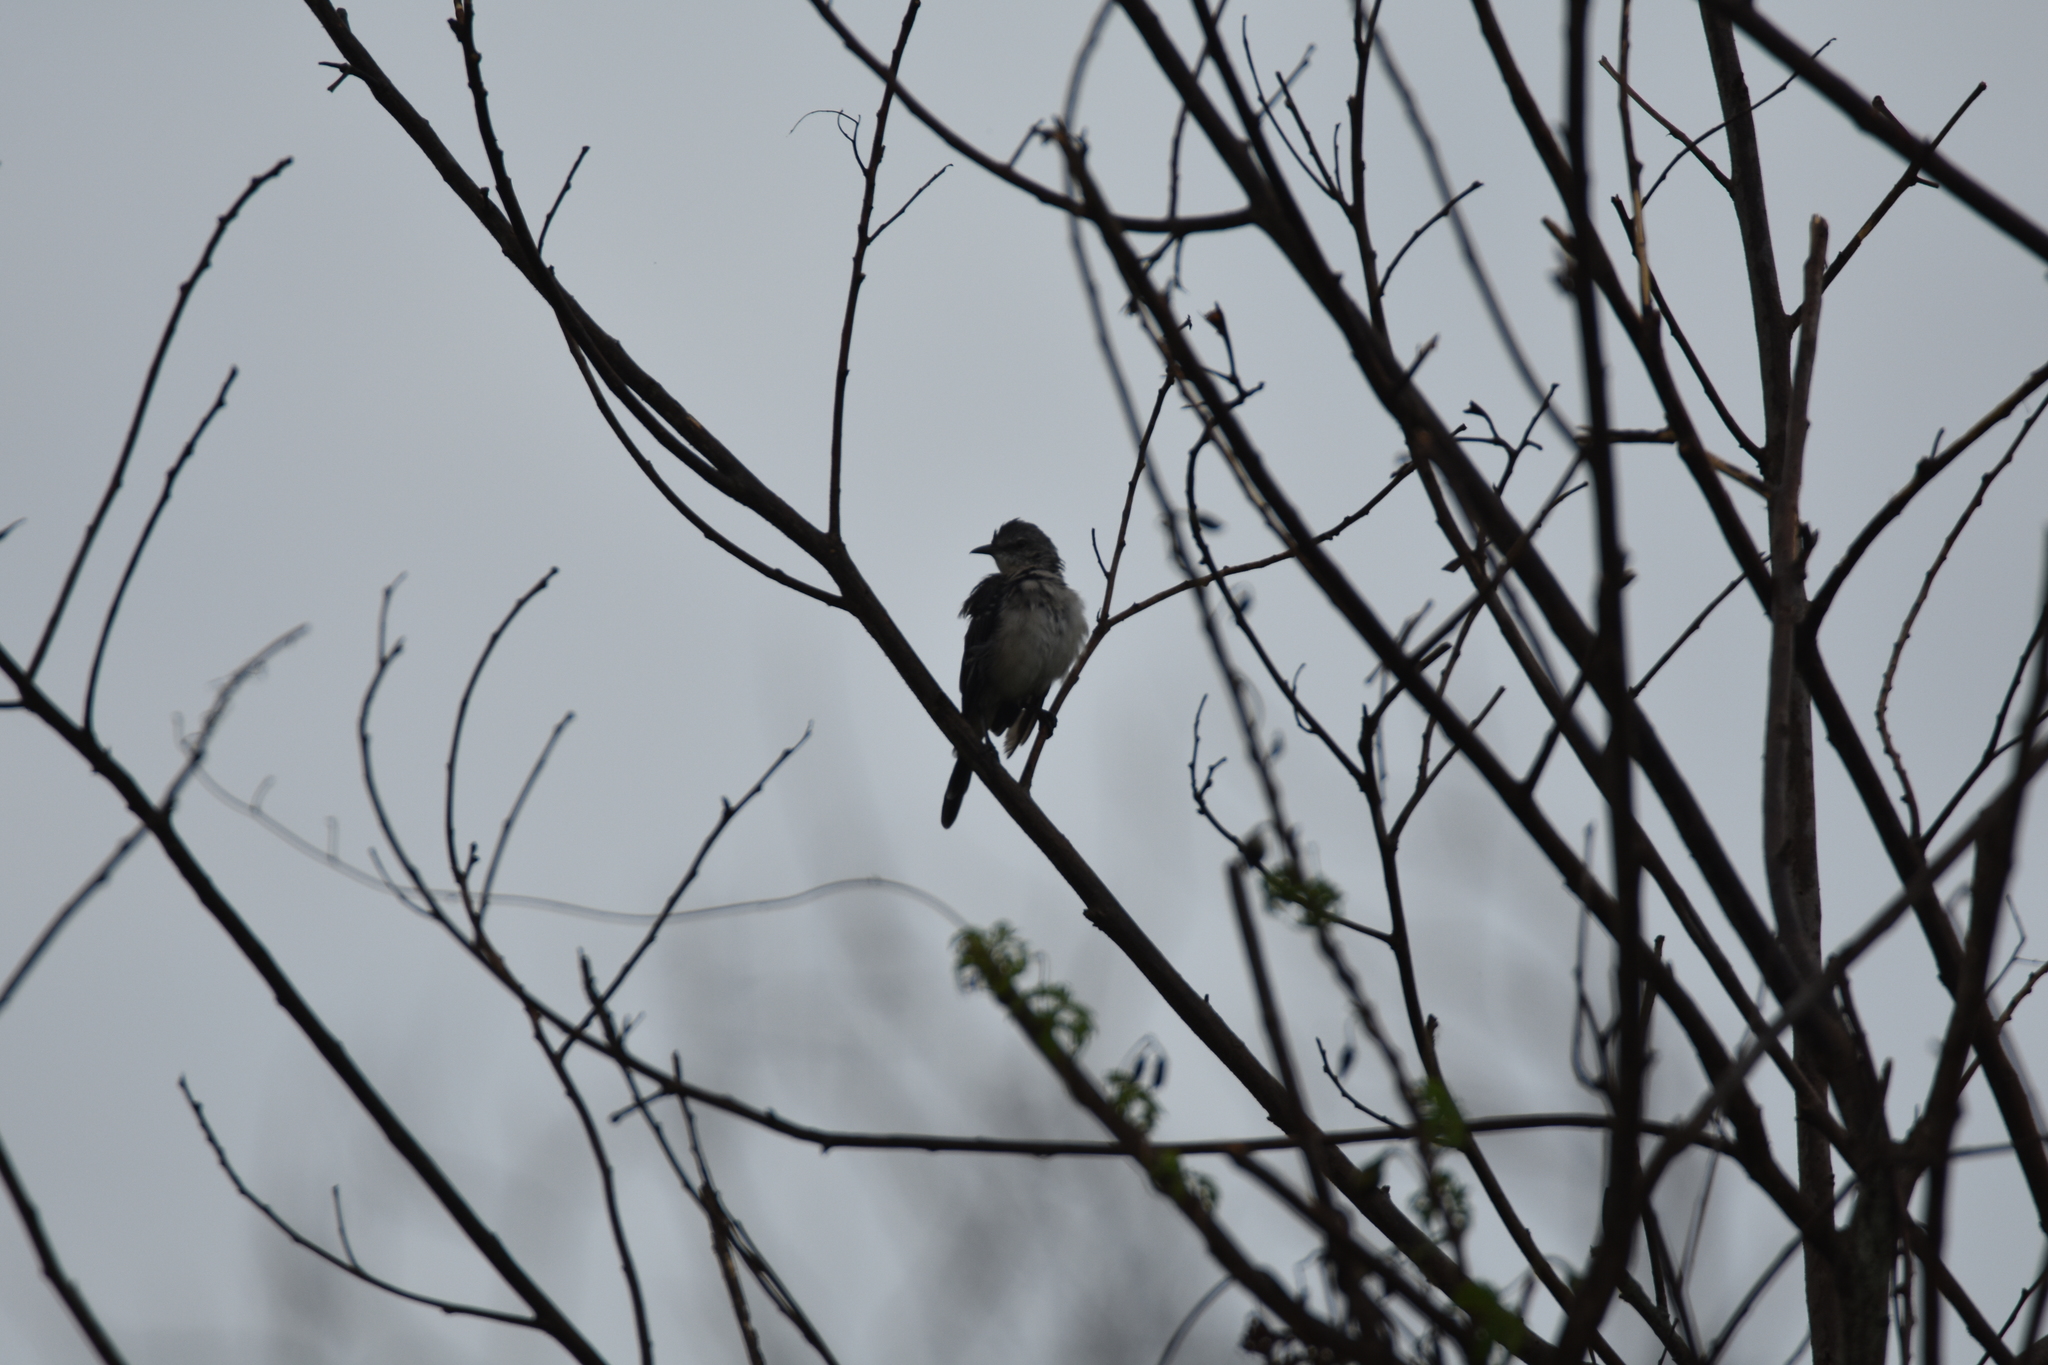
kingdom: Animalia
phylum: Chordata
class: Aves
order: Passeriformes
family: Mimidae
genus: Mimus
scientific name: Mimus polyglottos
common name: Northern mockingbird
